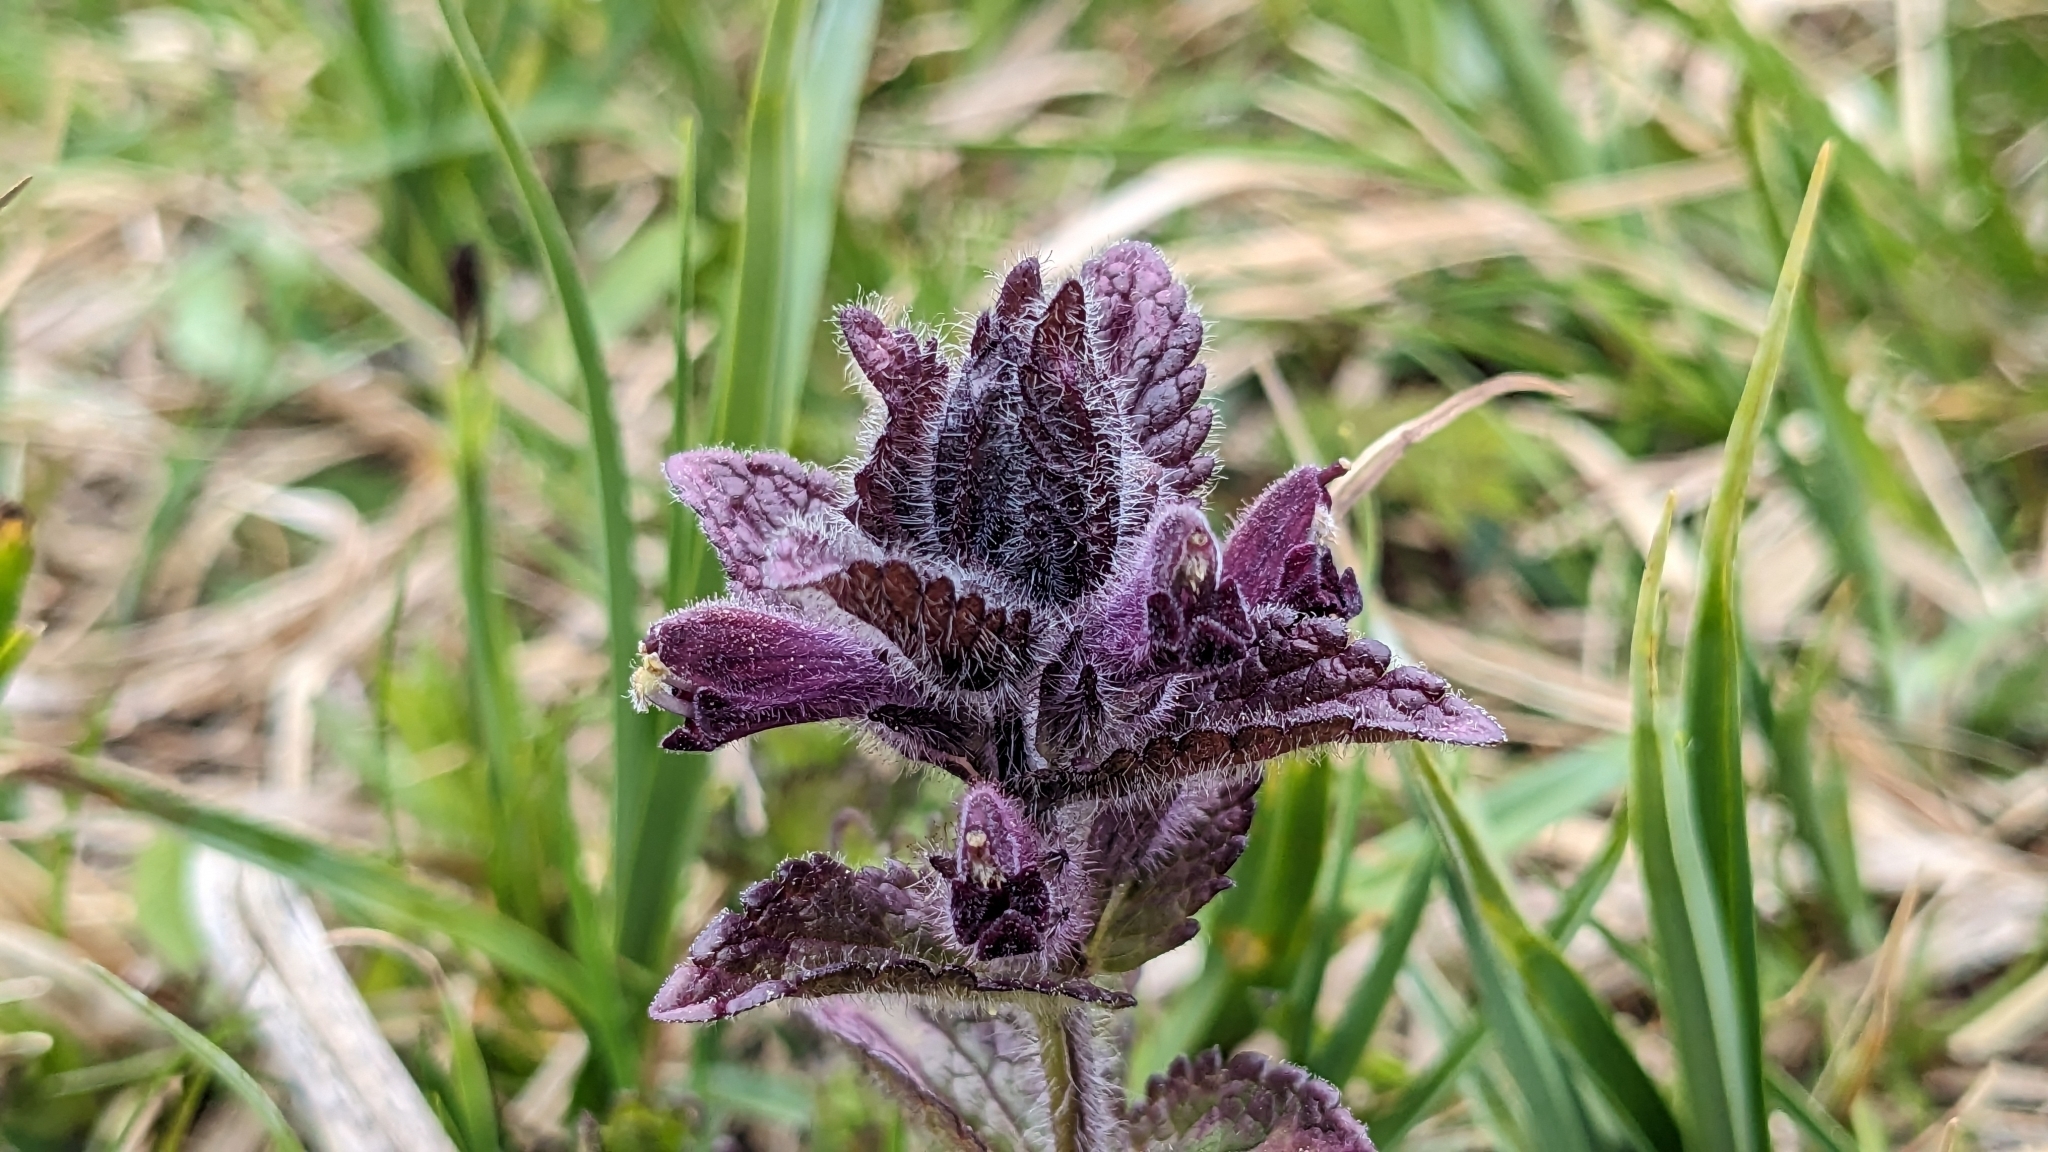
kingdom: Plantae
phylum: Tracheophyta
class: Magnoliopsida
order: Lamiales
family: Orobanchaceae
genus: Bartsia
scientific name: Bartsia alpina
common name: Alpine bartsia
